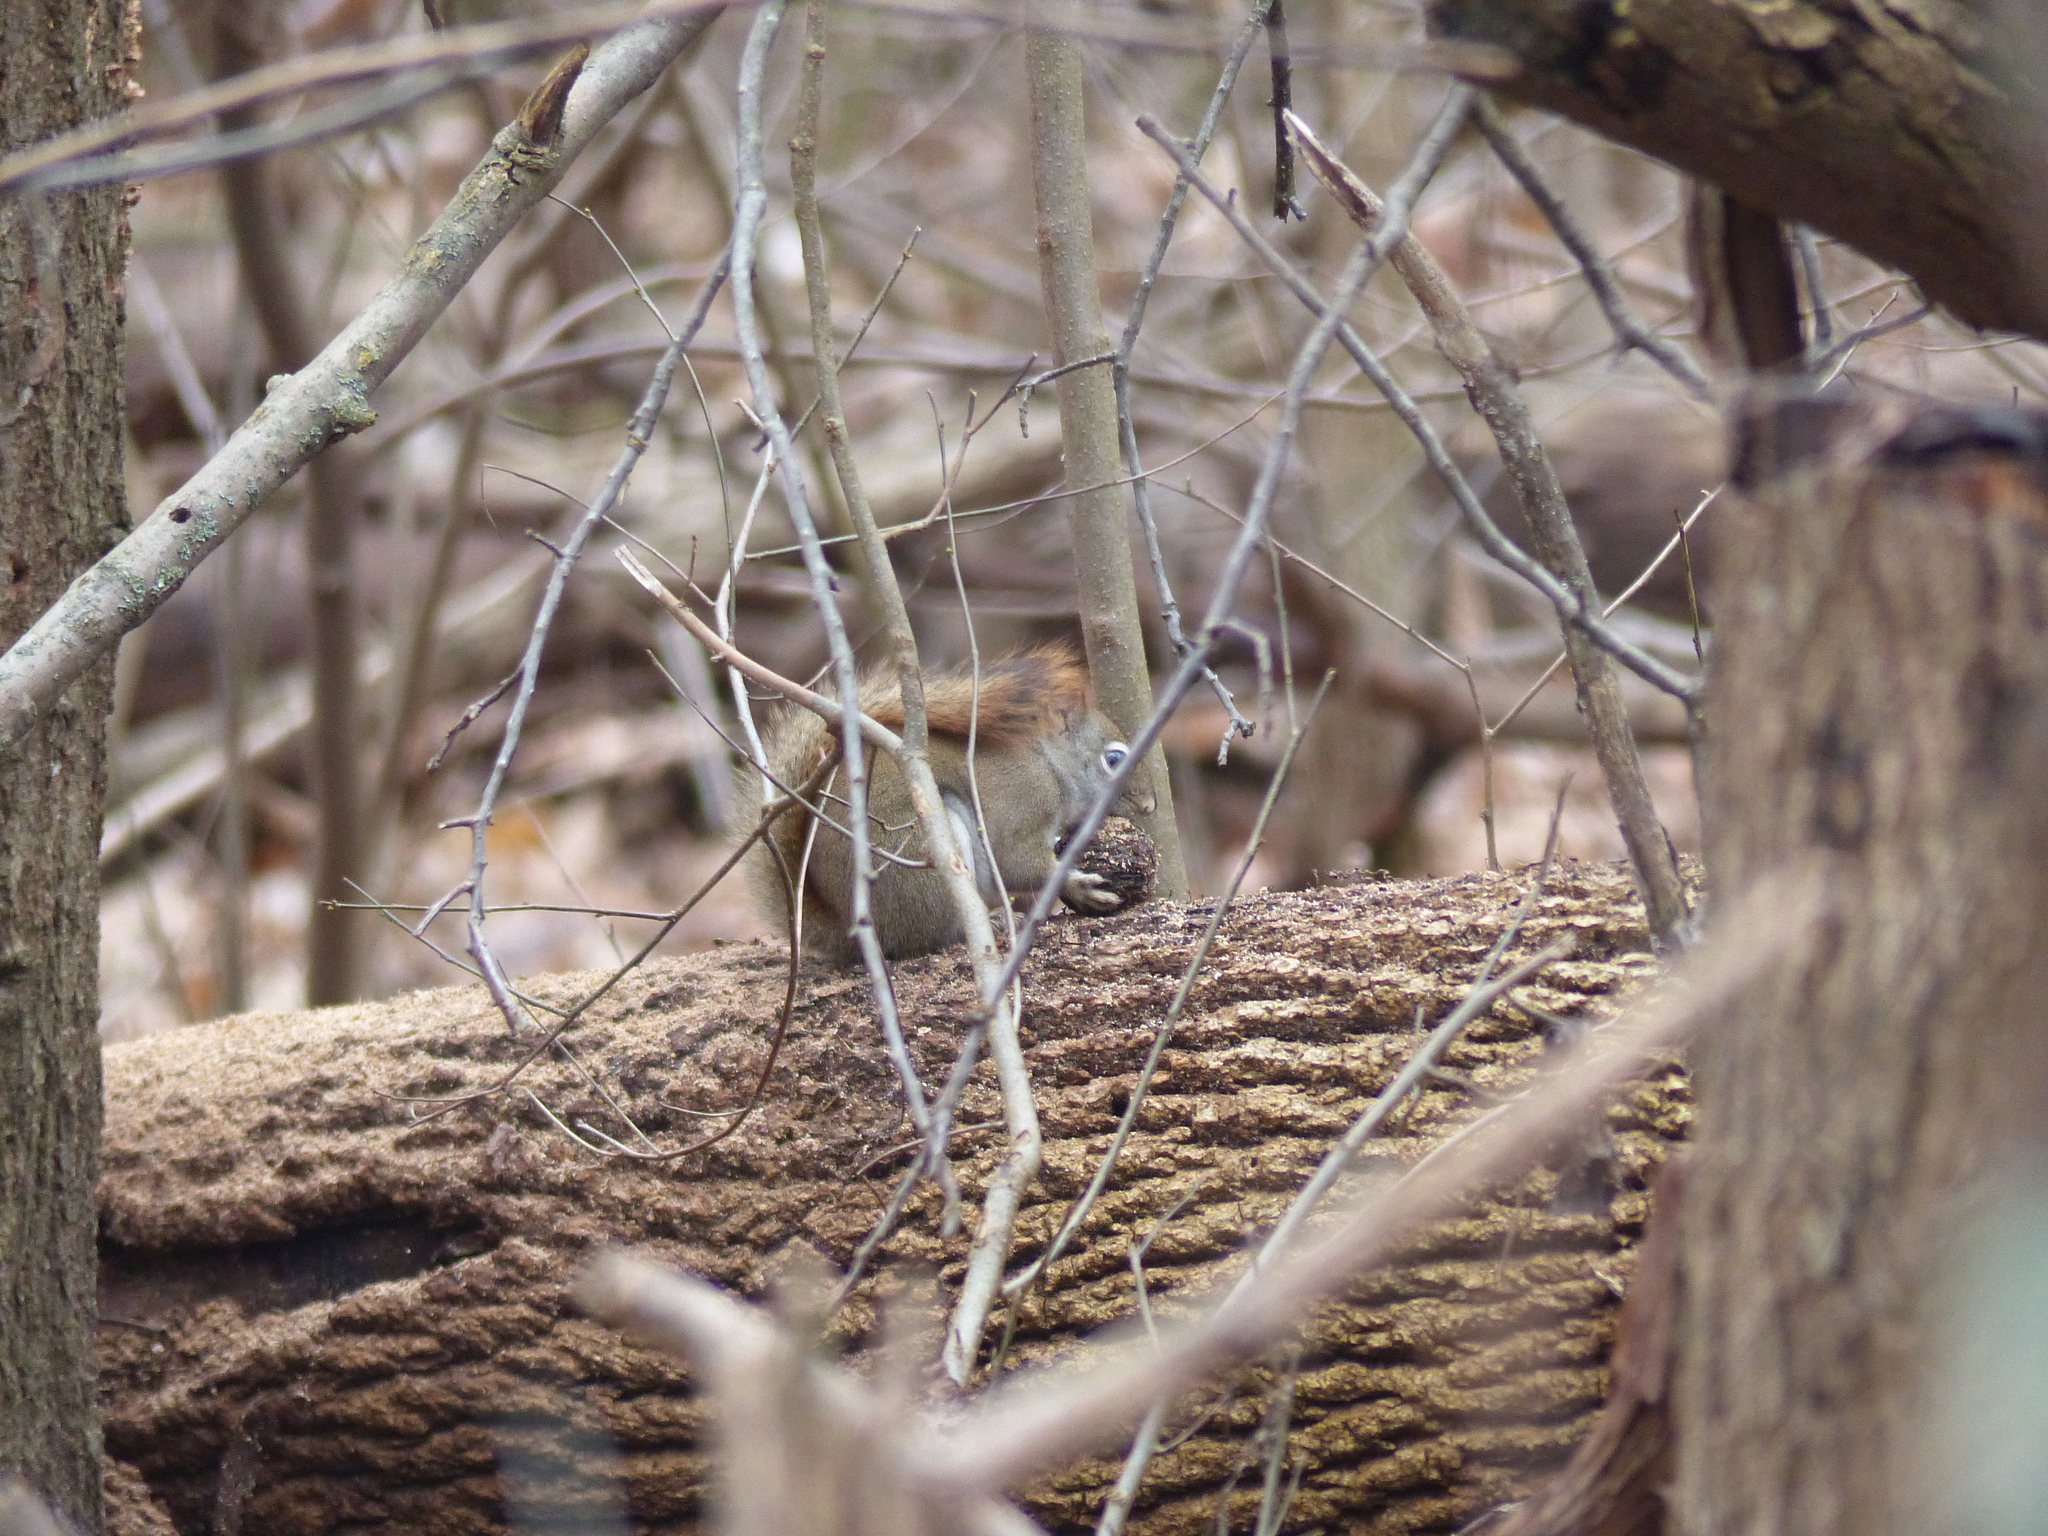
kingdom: Animalia
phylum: Chordata
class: Mammalia
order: Rodentia
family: Sciuridae
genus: Tamiasciurus
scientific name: Tamiasciurus hudsonicus
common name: Red squirrel
